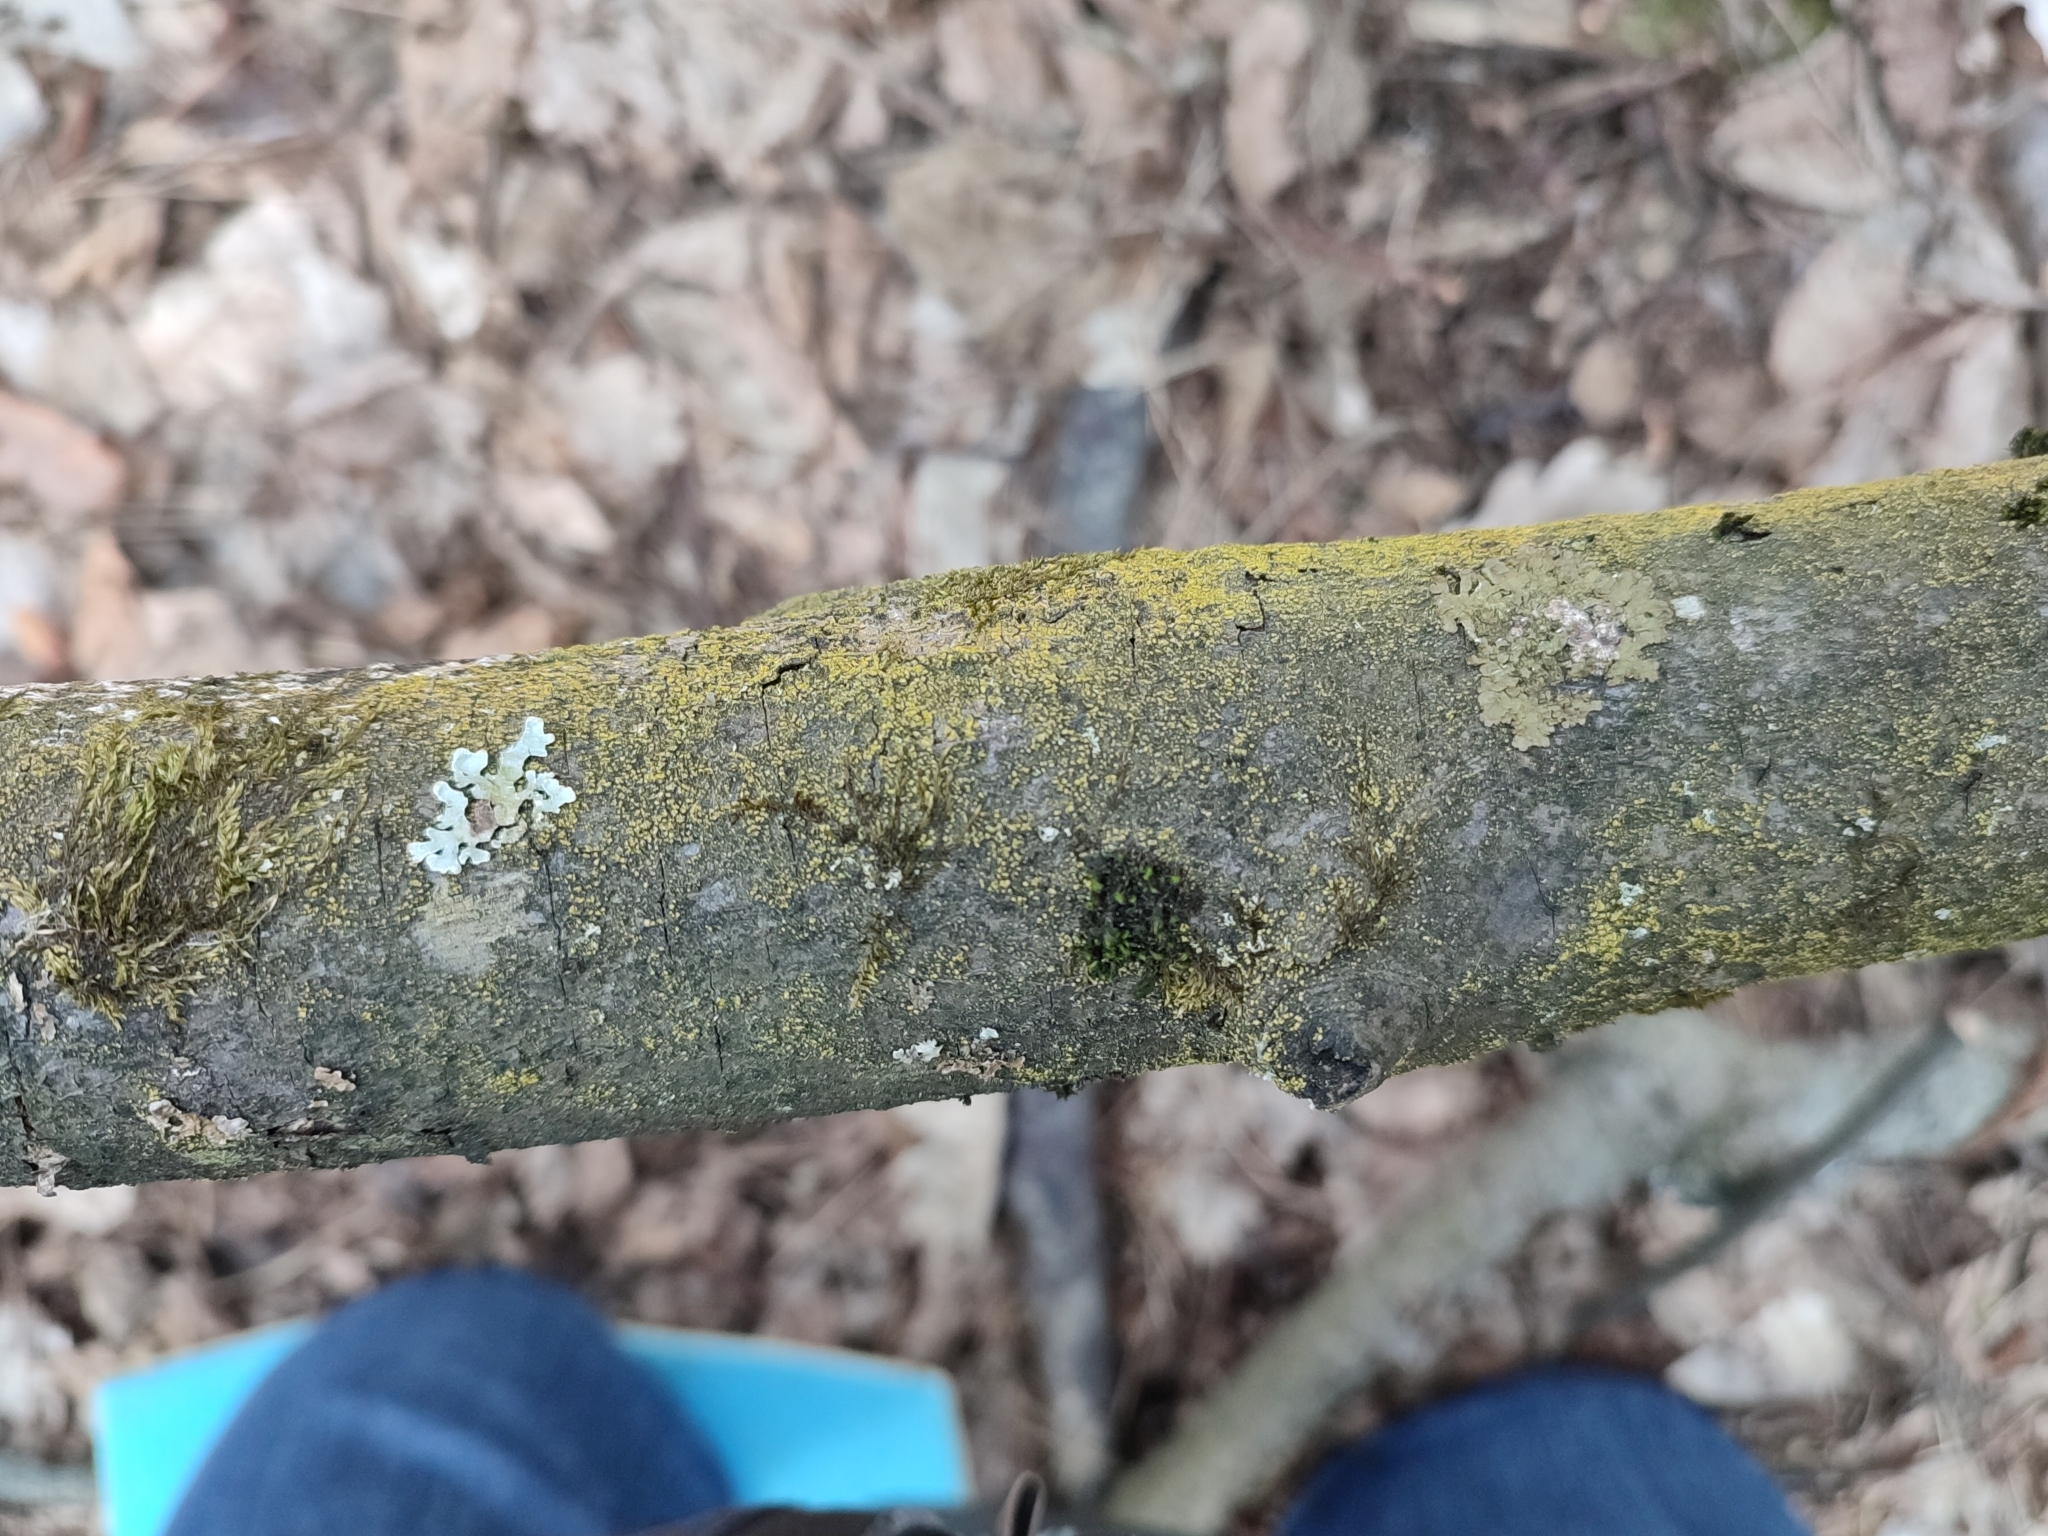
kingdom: Fungi
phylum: Ascomycota
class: Candelariomycetes
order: Candelariales
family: Candelariaceae
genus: Candelariella
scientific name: Candelariella efflorescens
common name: Powdery goldspeck
